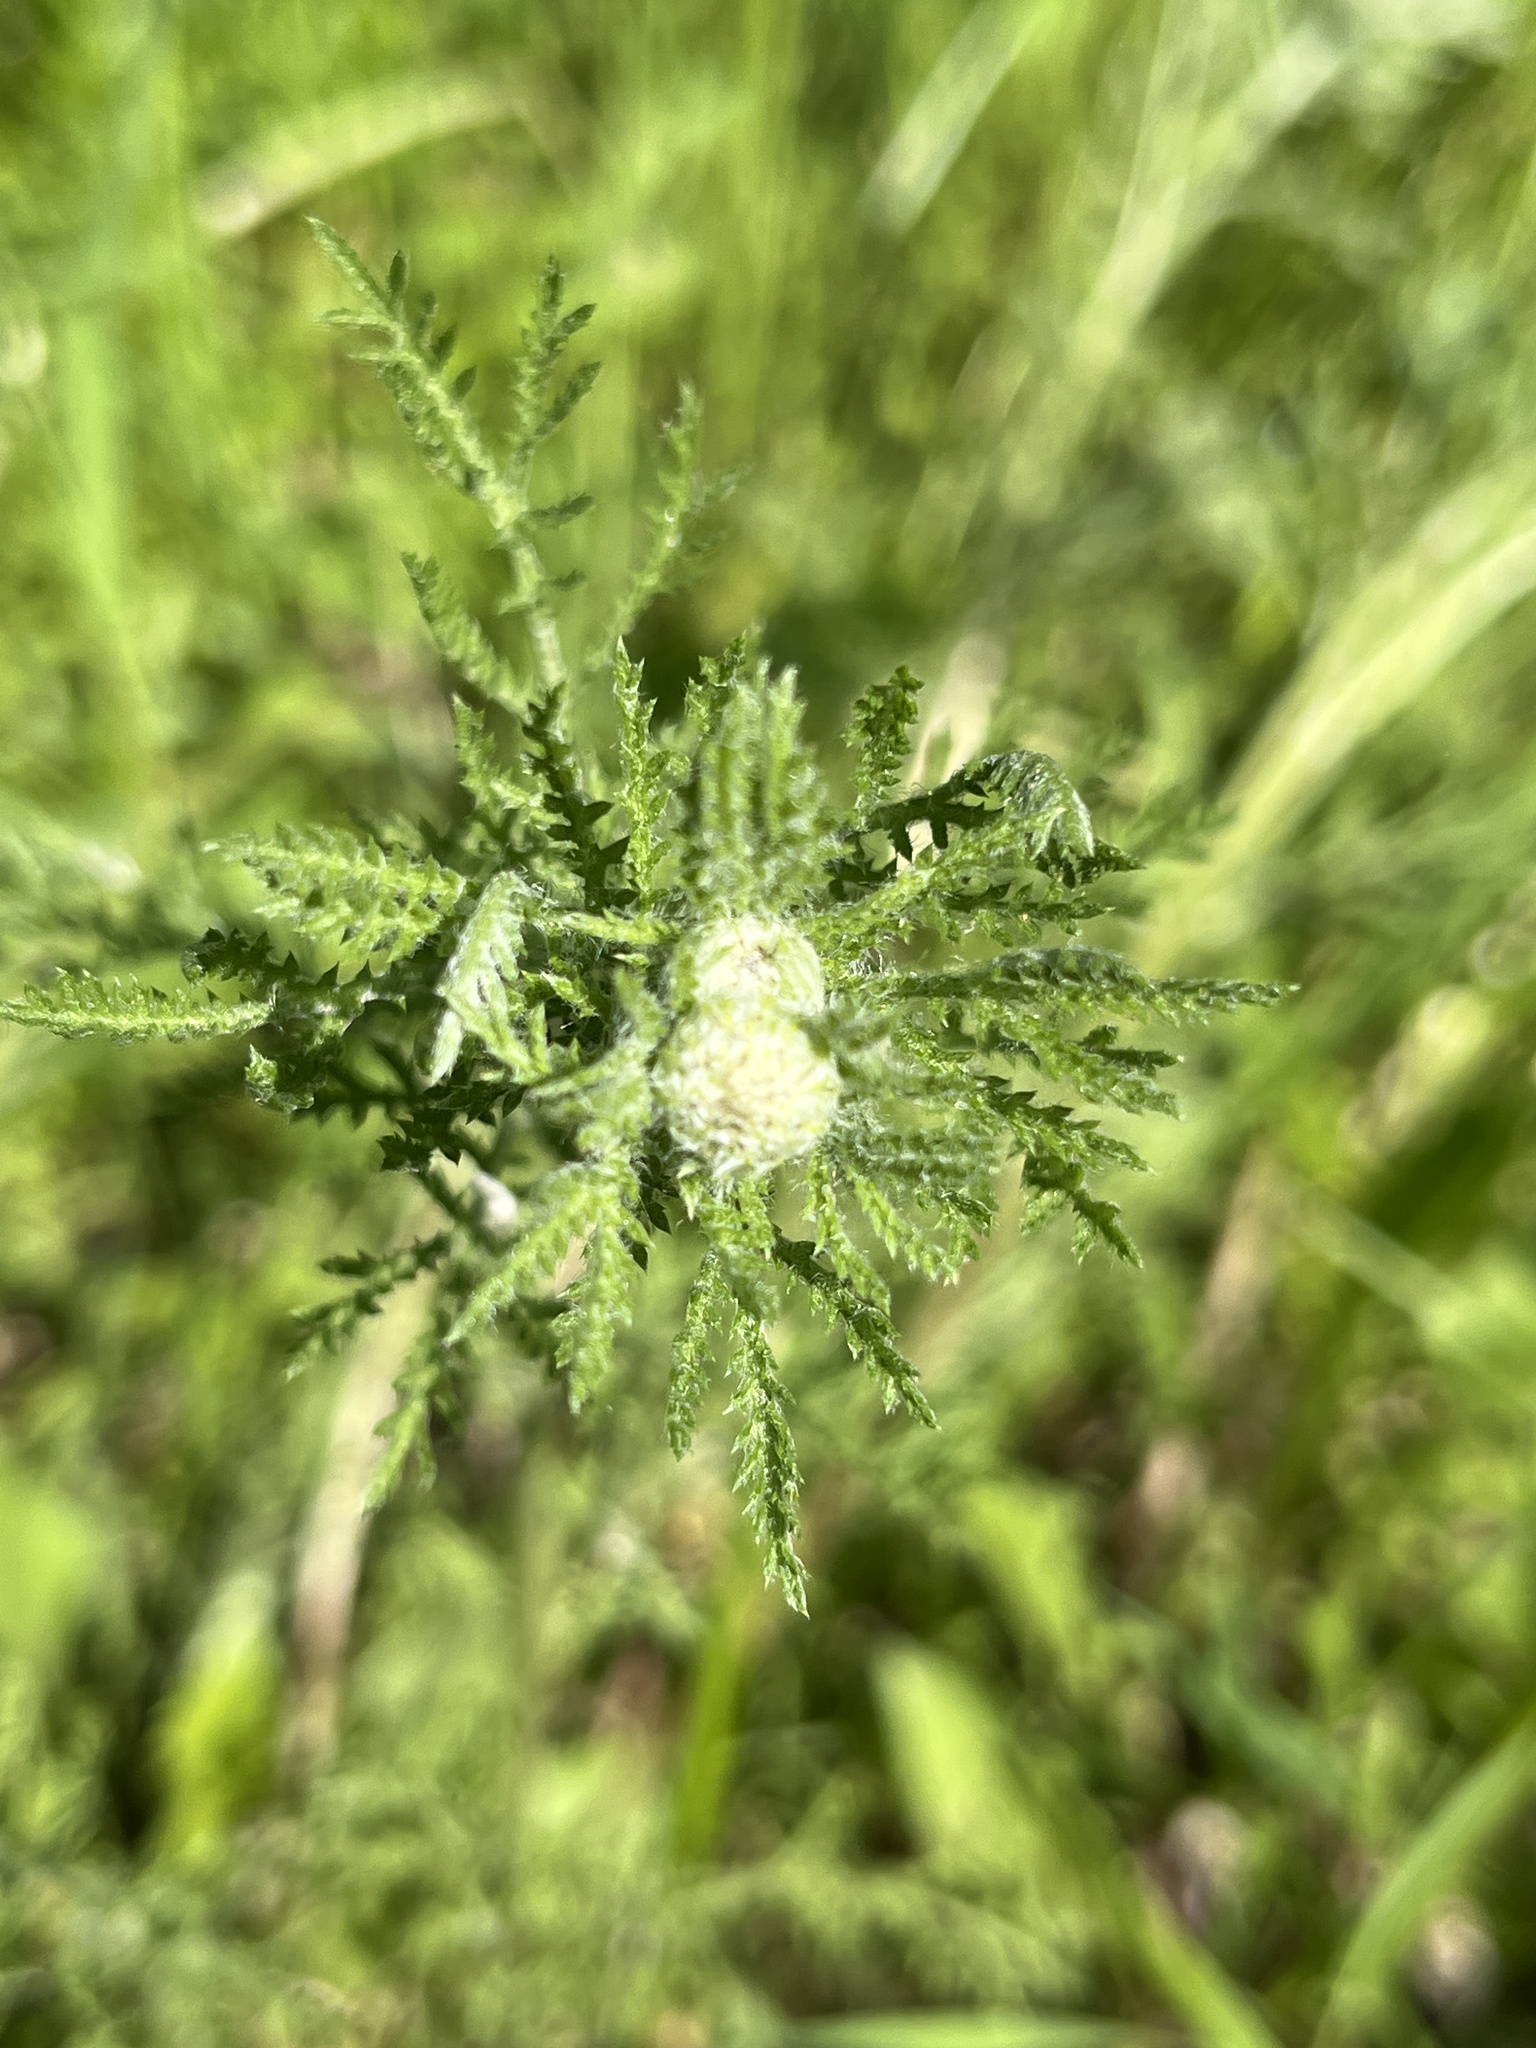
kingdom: Plantae
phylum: Tracheophyta
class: Magnoliopsida
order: Asterales
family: Asteraceae
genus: Cota
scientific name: Cota tinctoria
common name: Golden chamomile
